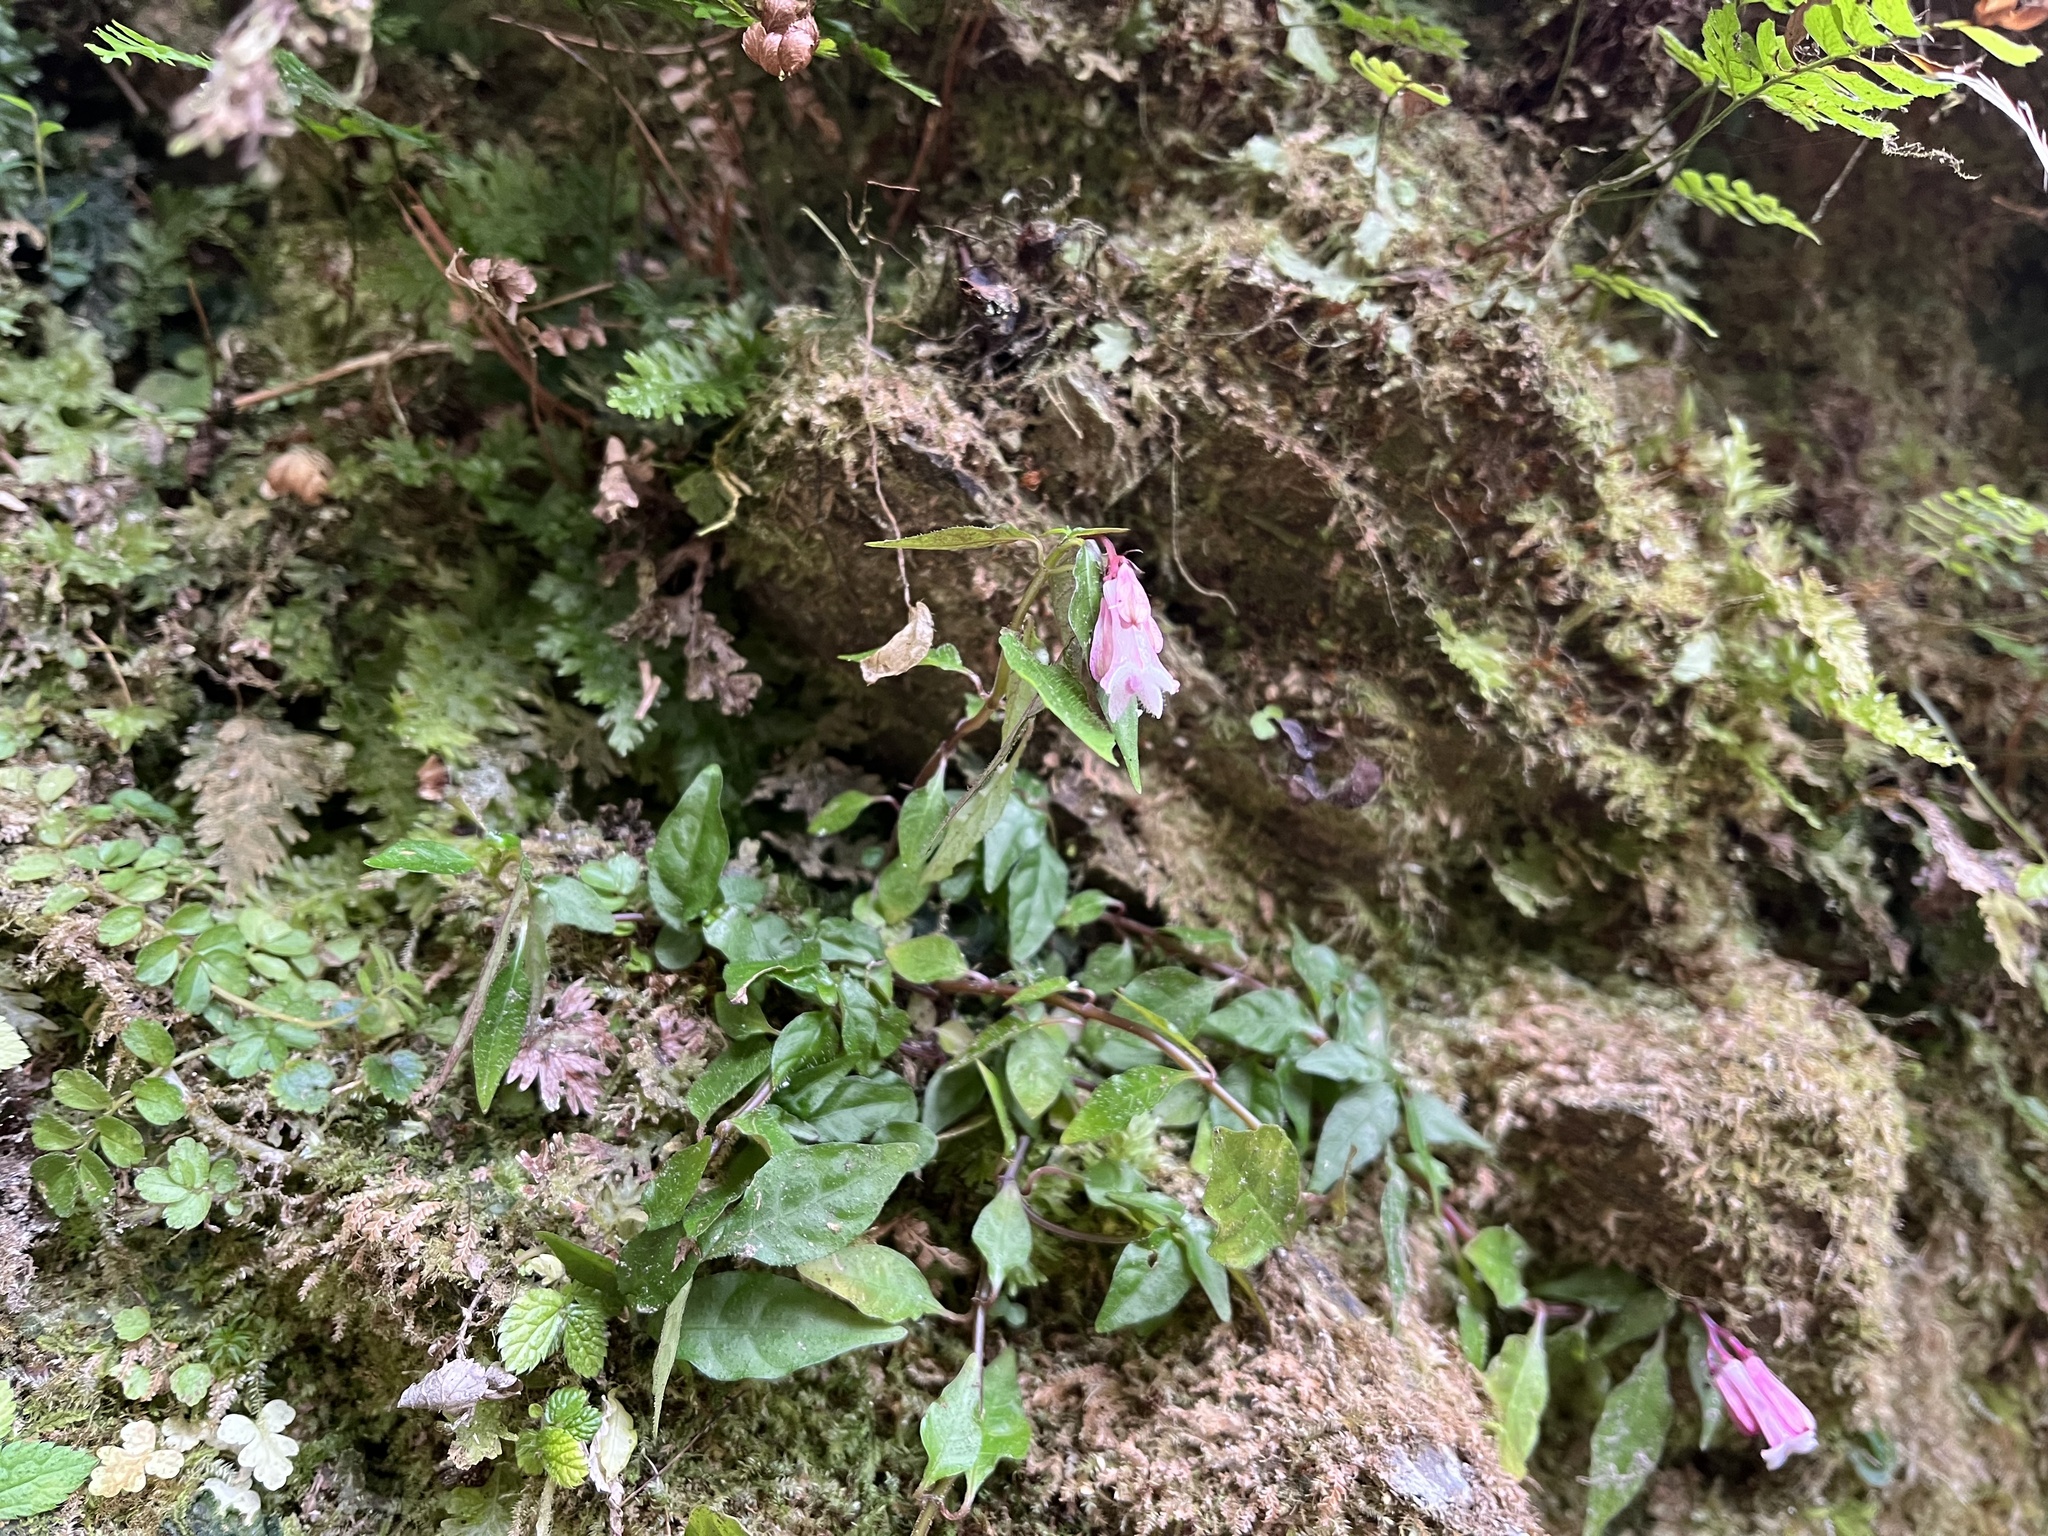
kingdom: Plantae
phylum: Tracheophyta
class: Magnoliopsida
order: Gentianales
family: Rubiaceae
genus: Ophiorrhiza
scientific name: Ophiorrhiza japonica
